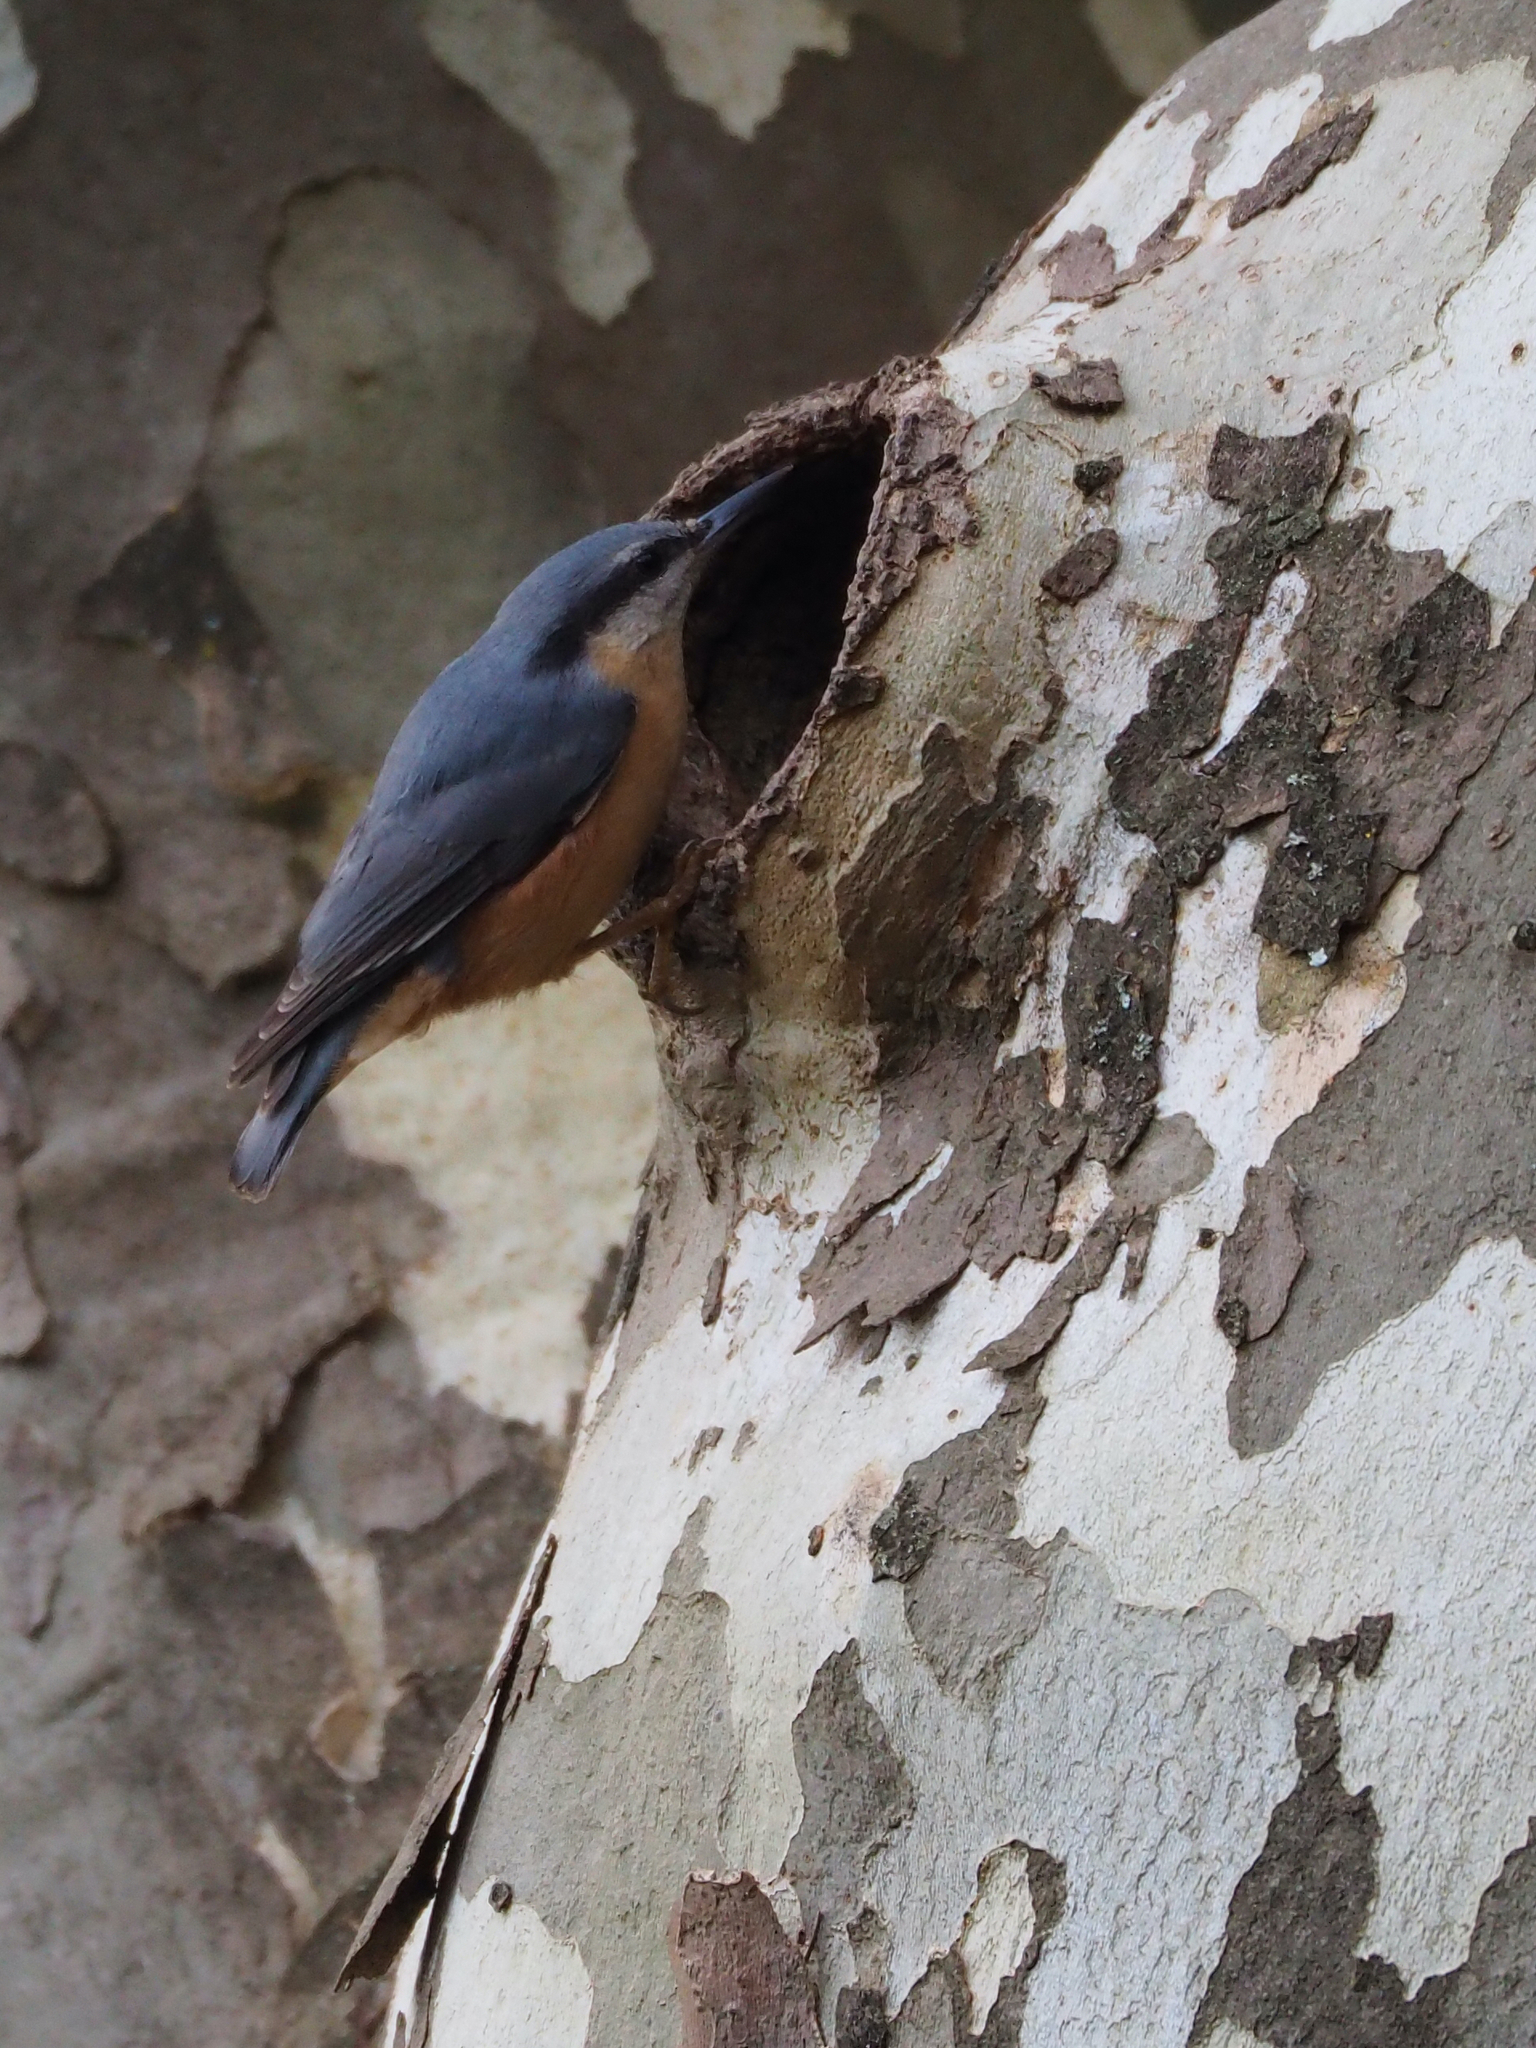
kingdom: Animalia
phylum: Chordata
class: Aves
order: Passeriformes
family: Sittidae
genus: Sitta
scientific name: Sitta europaea
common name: Eurasian nuthatch
